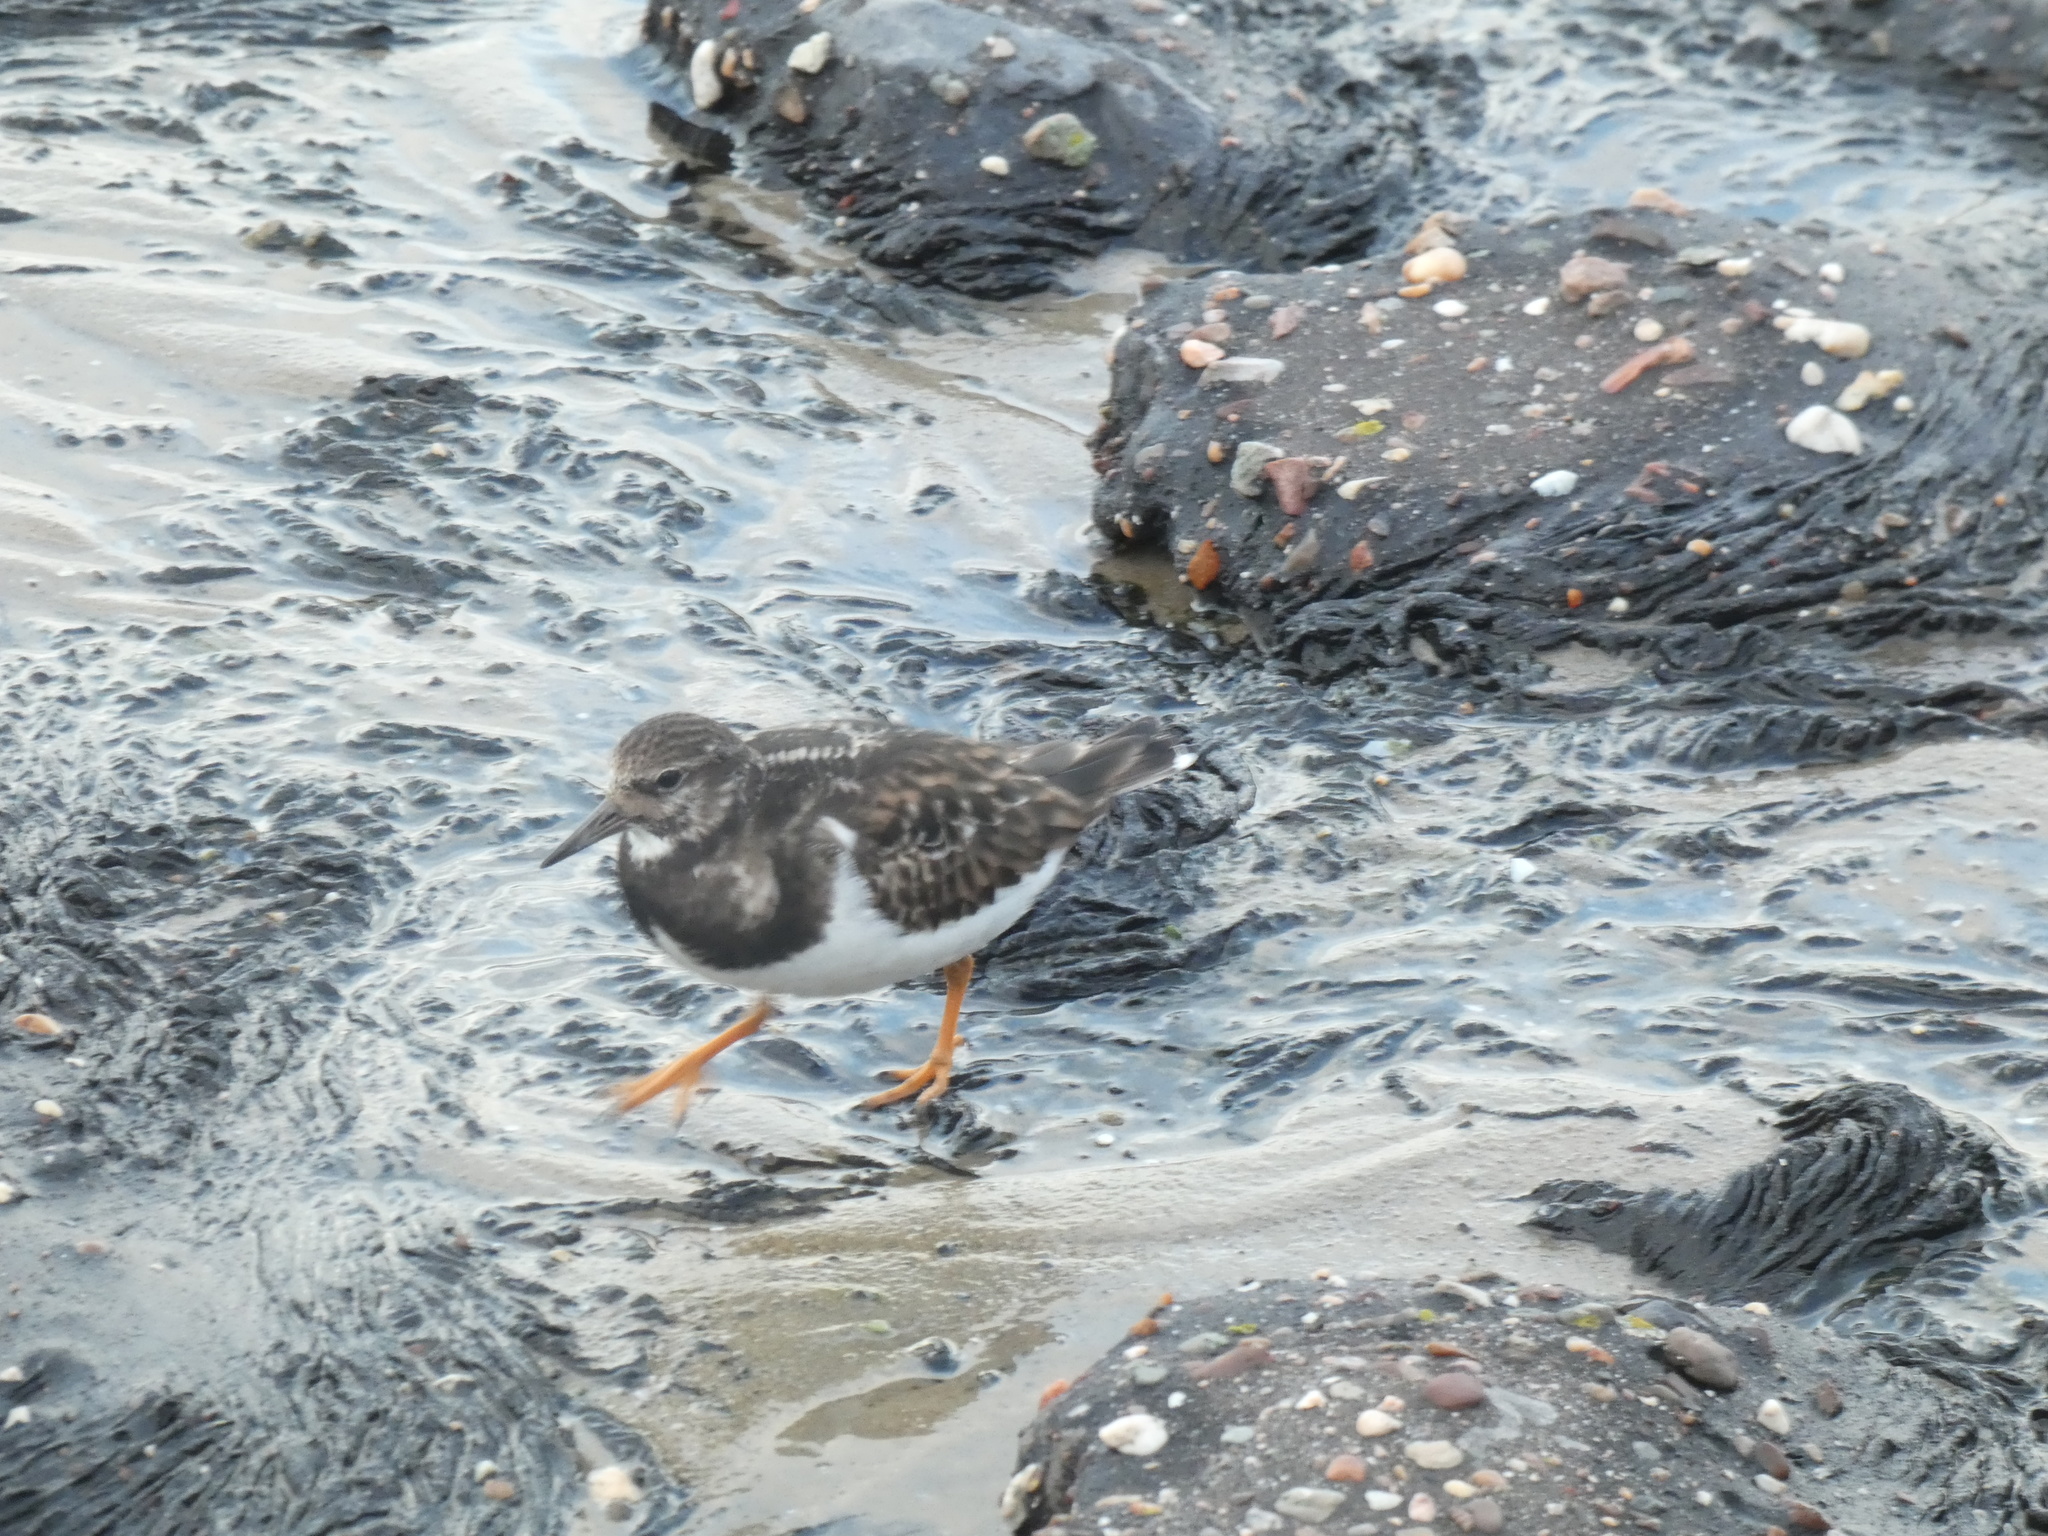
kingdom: Animalia
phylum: Chordata
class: Aves
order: Charadriiformes
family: Scolopacidae
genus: Arenaria
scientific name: Arenaria interpres
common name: Ruddy turnstone
